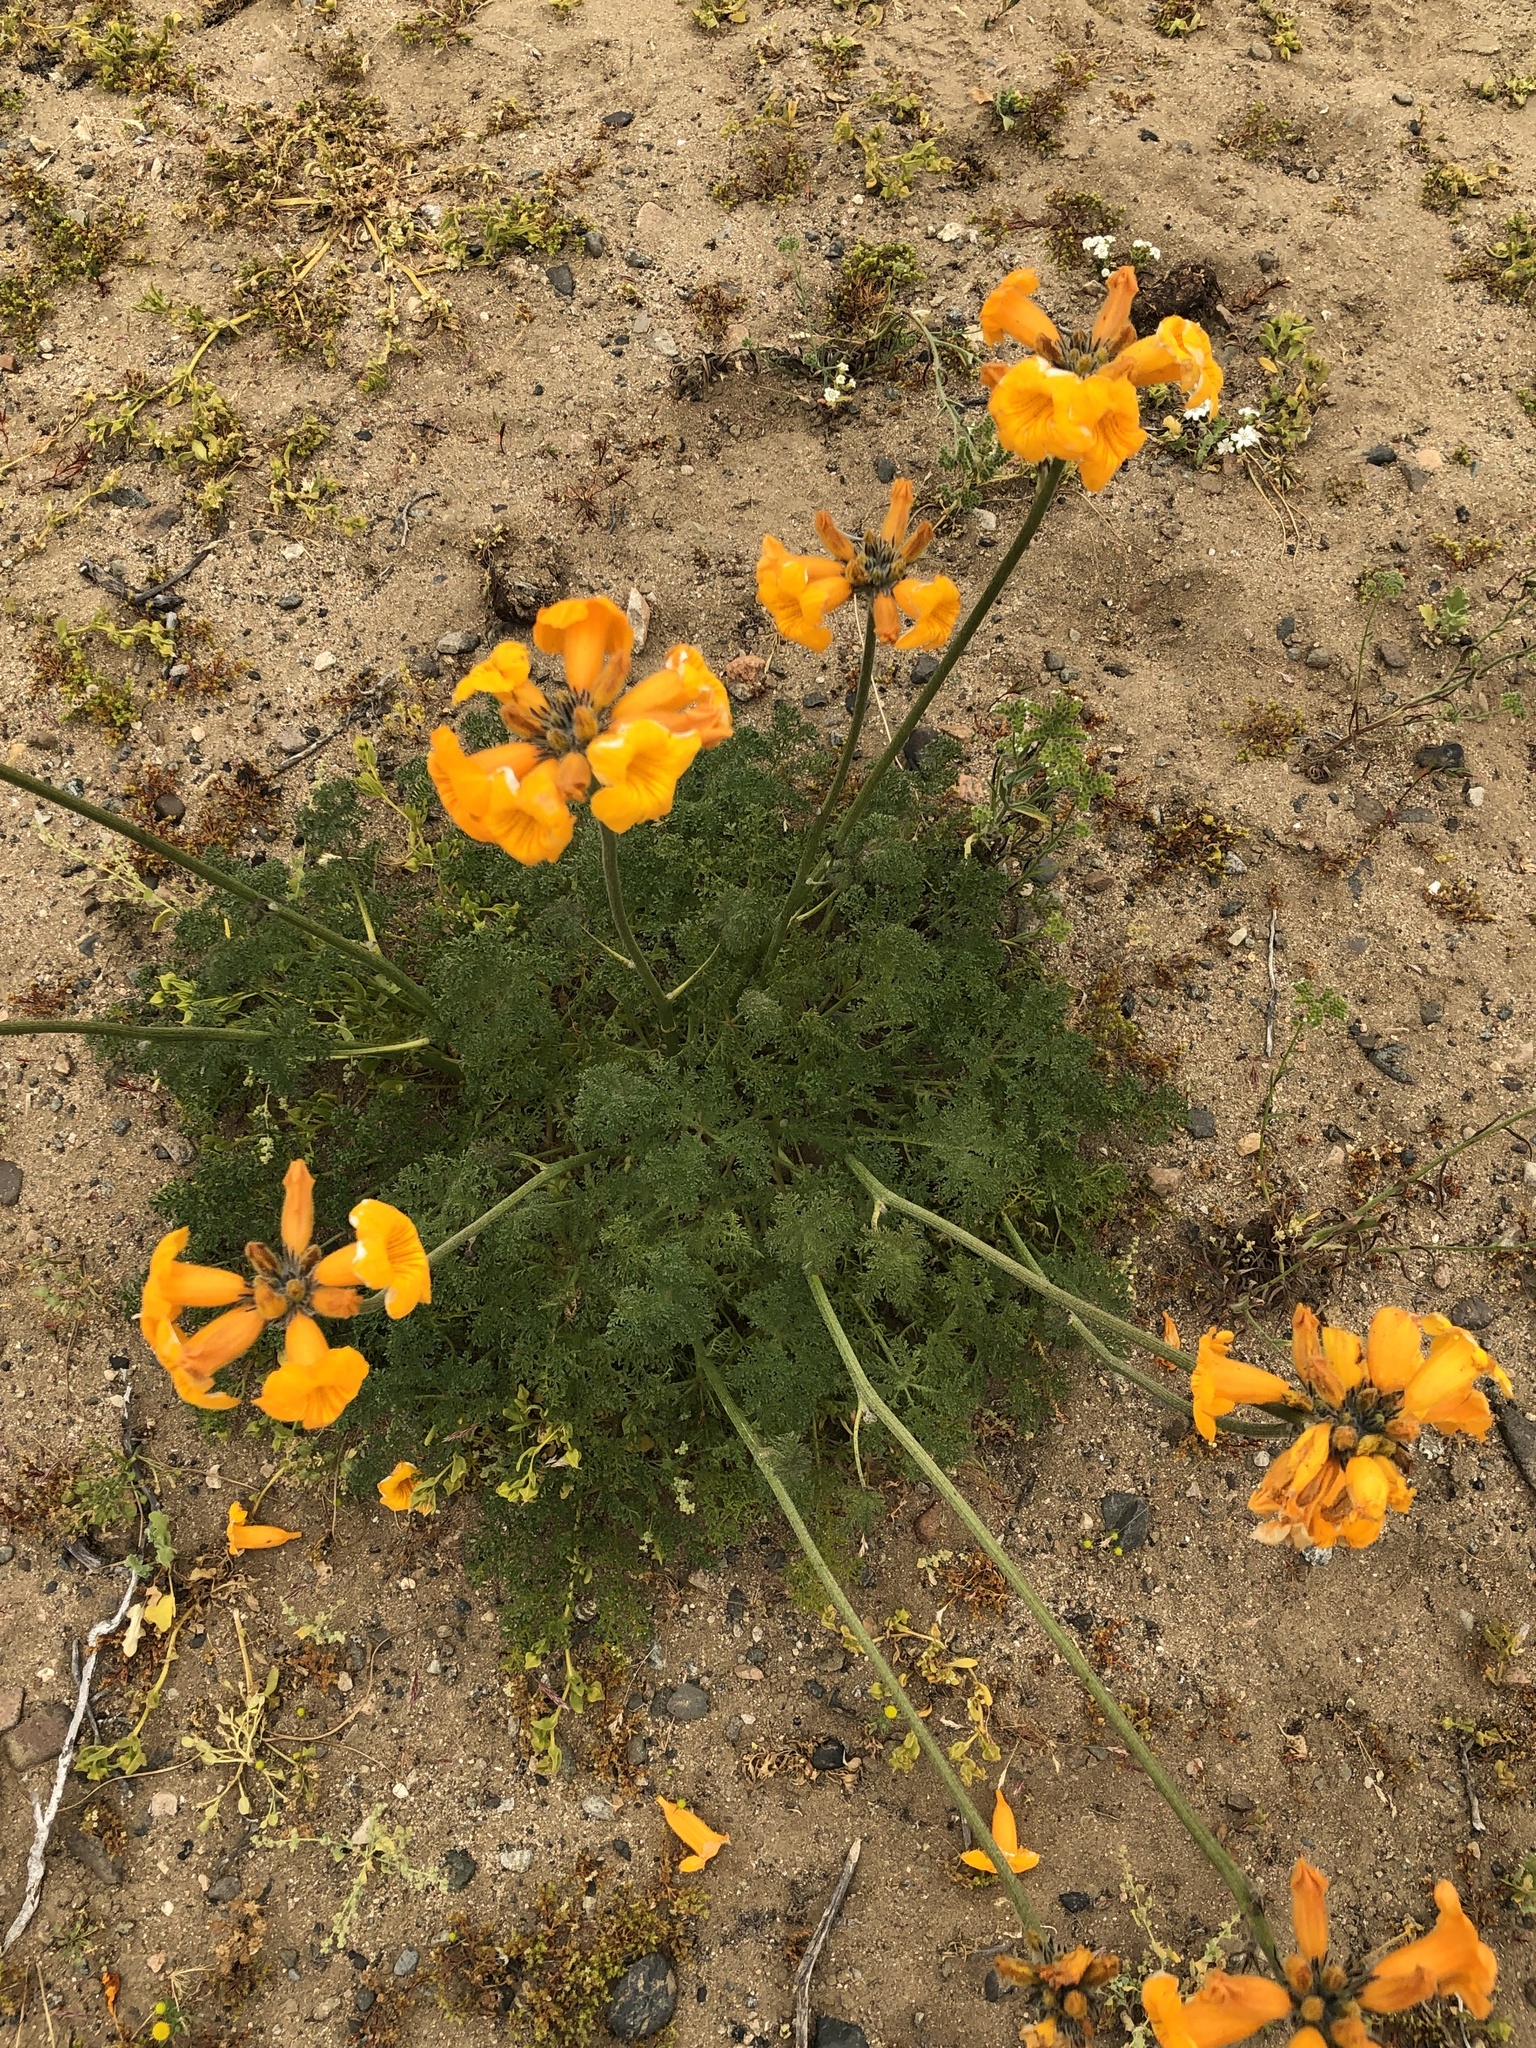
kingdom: Plantae
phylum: Tracheophyta
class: Magnoliopsida
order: Lamiales
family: Bignoniaceae
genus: Argylia
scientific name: Argylia radiata
